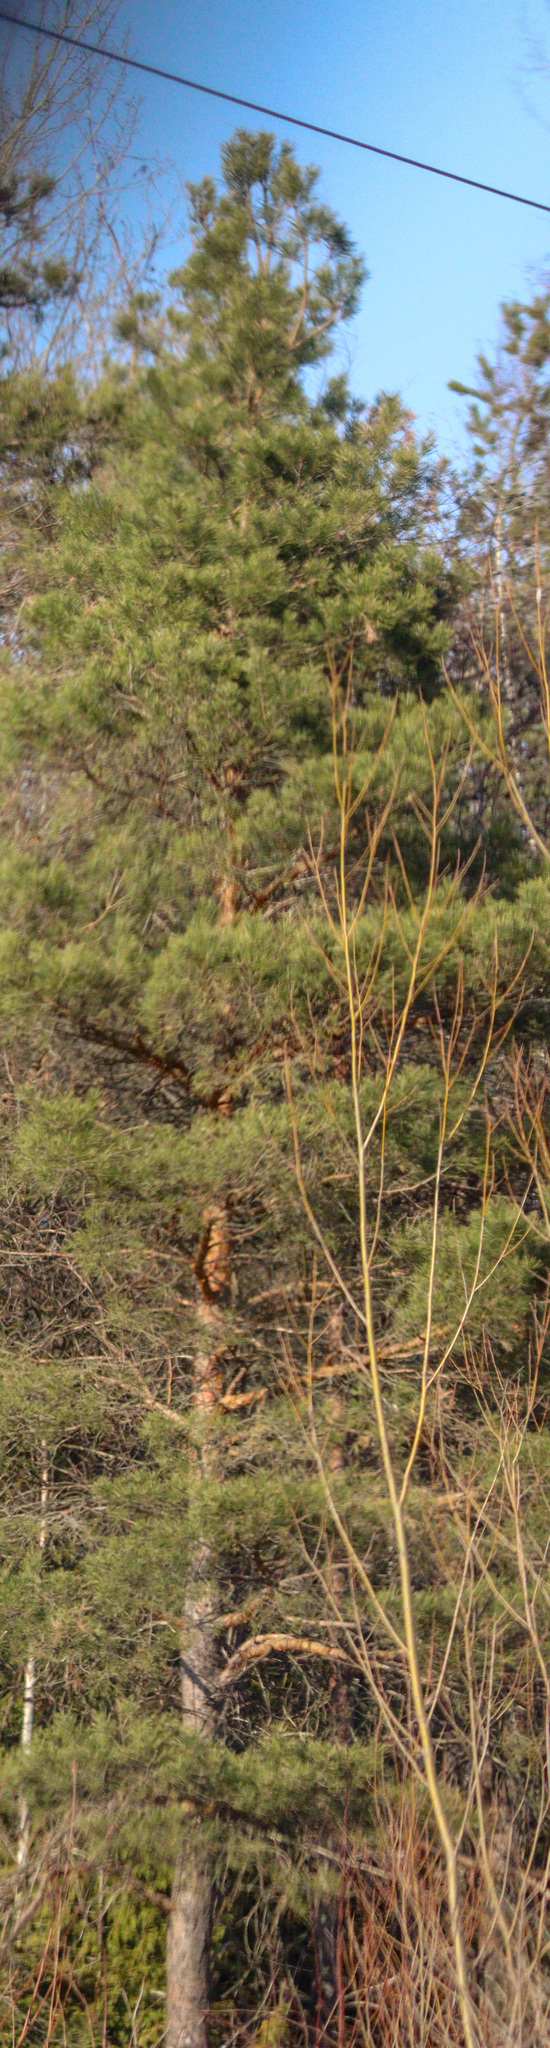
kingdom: Plantae
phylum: Tracheophyta
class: Pinopsida
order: Pinales
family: Pinaceae
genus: Pinus
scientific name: Pinus sylvestris
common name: Scots pine
